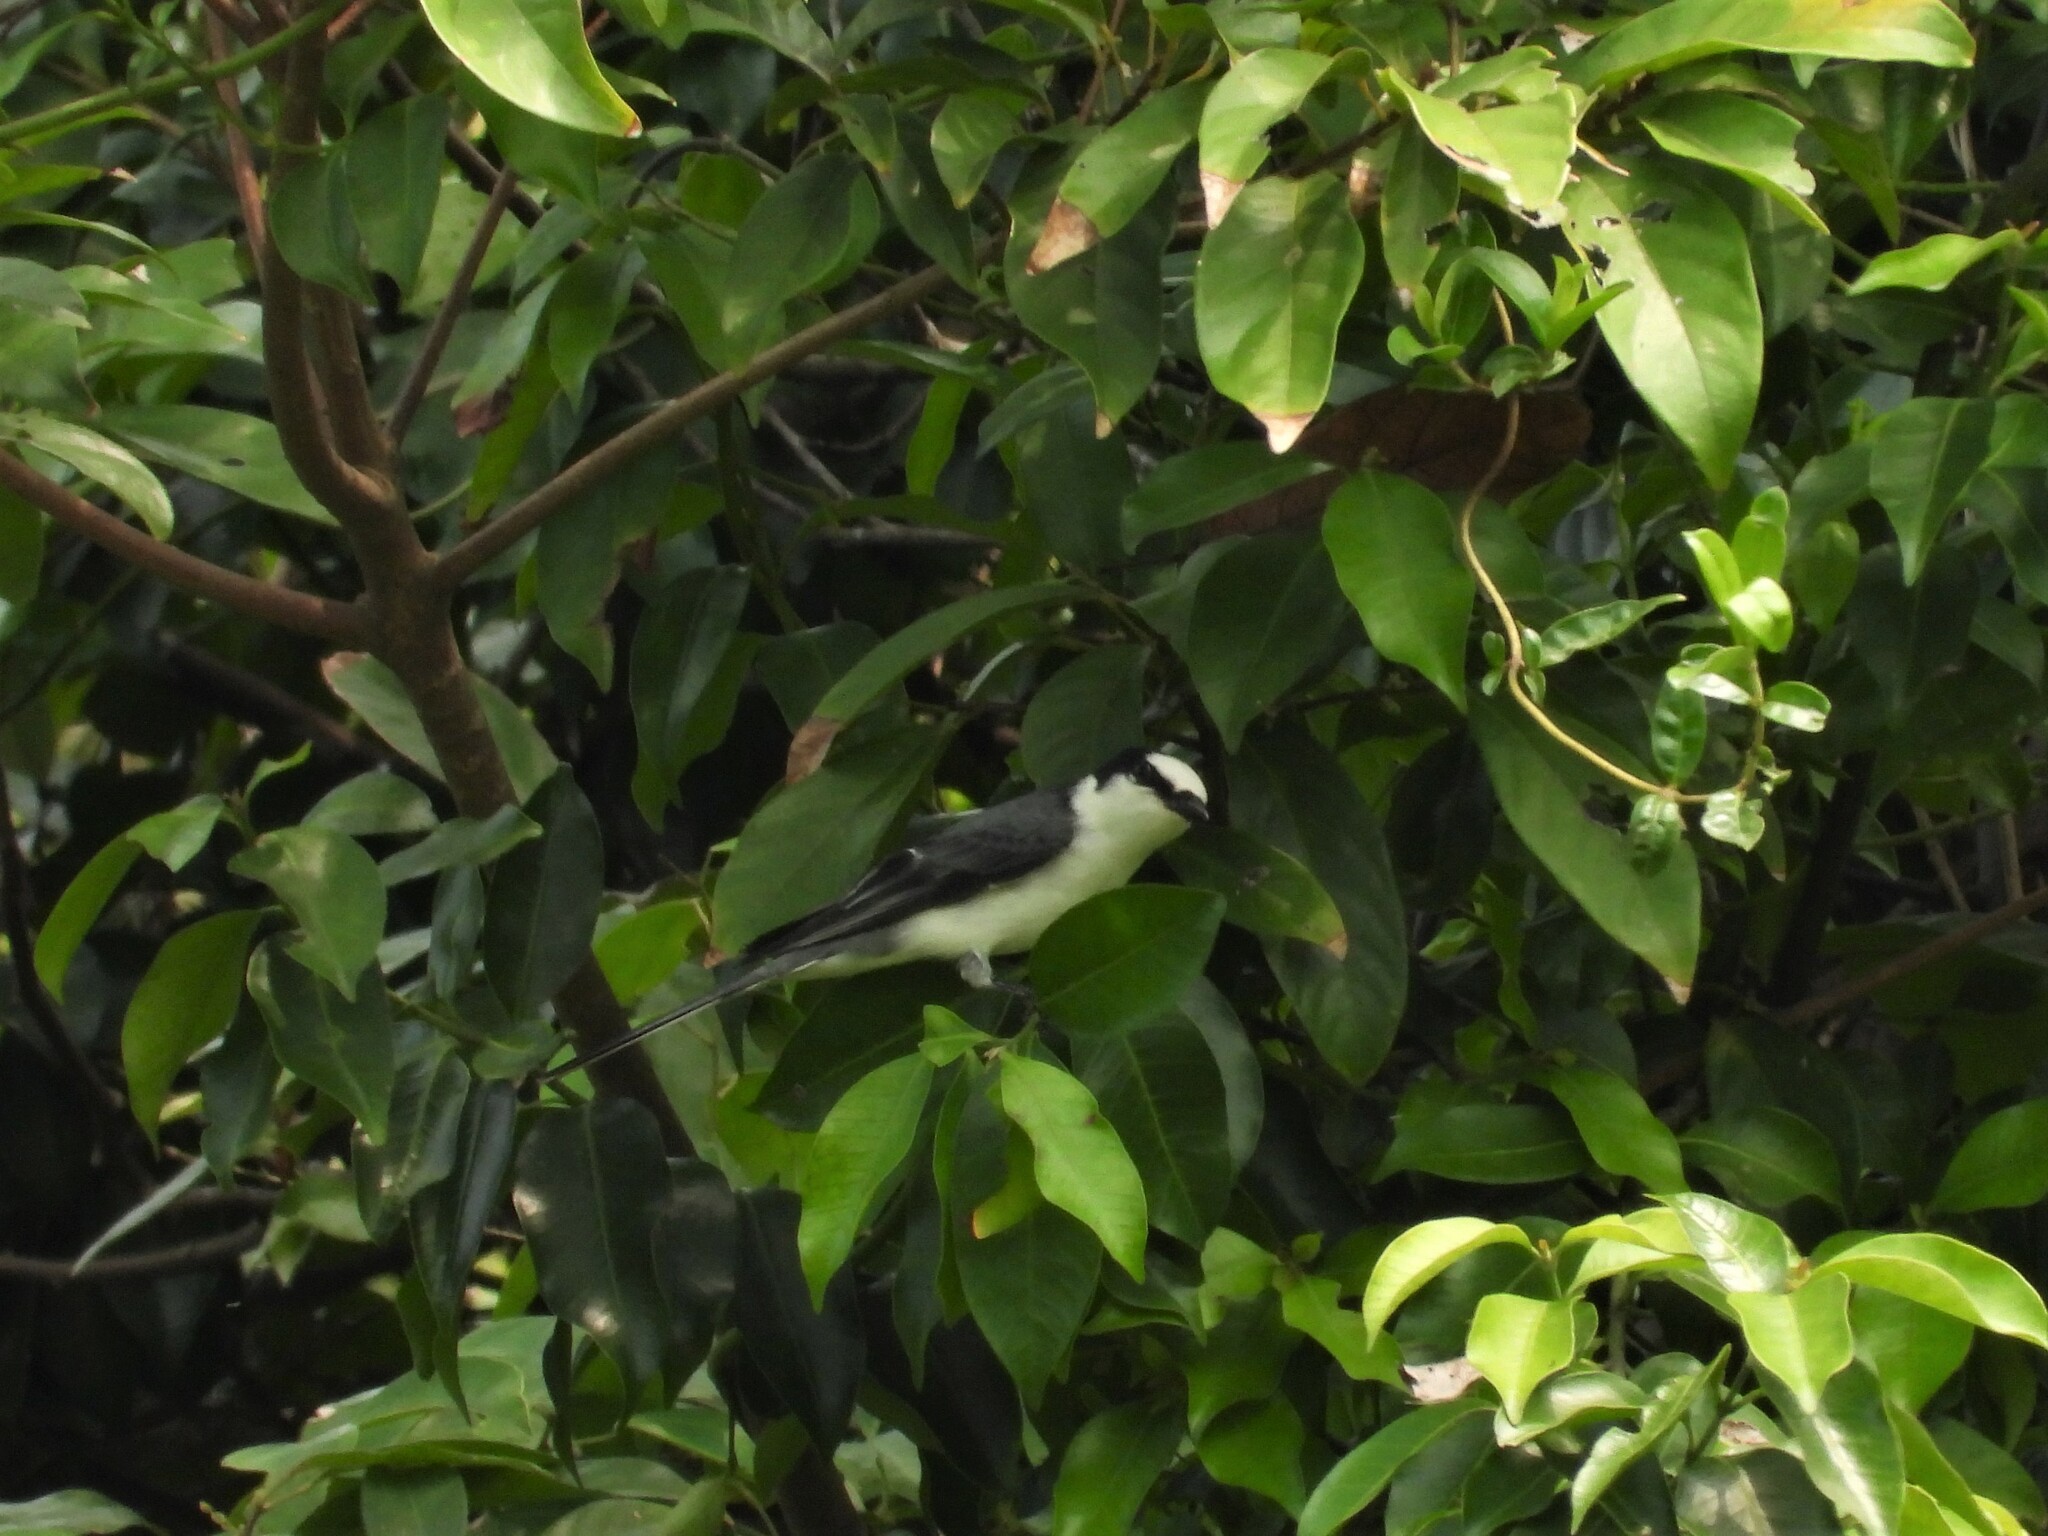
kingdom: Animalia
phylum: Chordata
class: Aves
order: Passeriformes
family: Campephagidae
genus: Pericrocotus
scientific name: Pericrocotus divaricatus
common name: Ashy minivet
